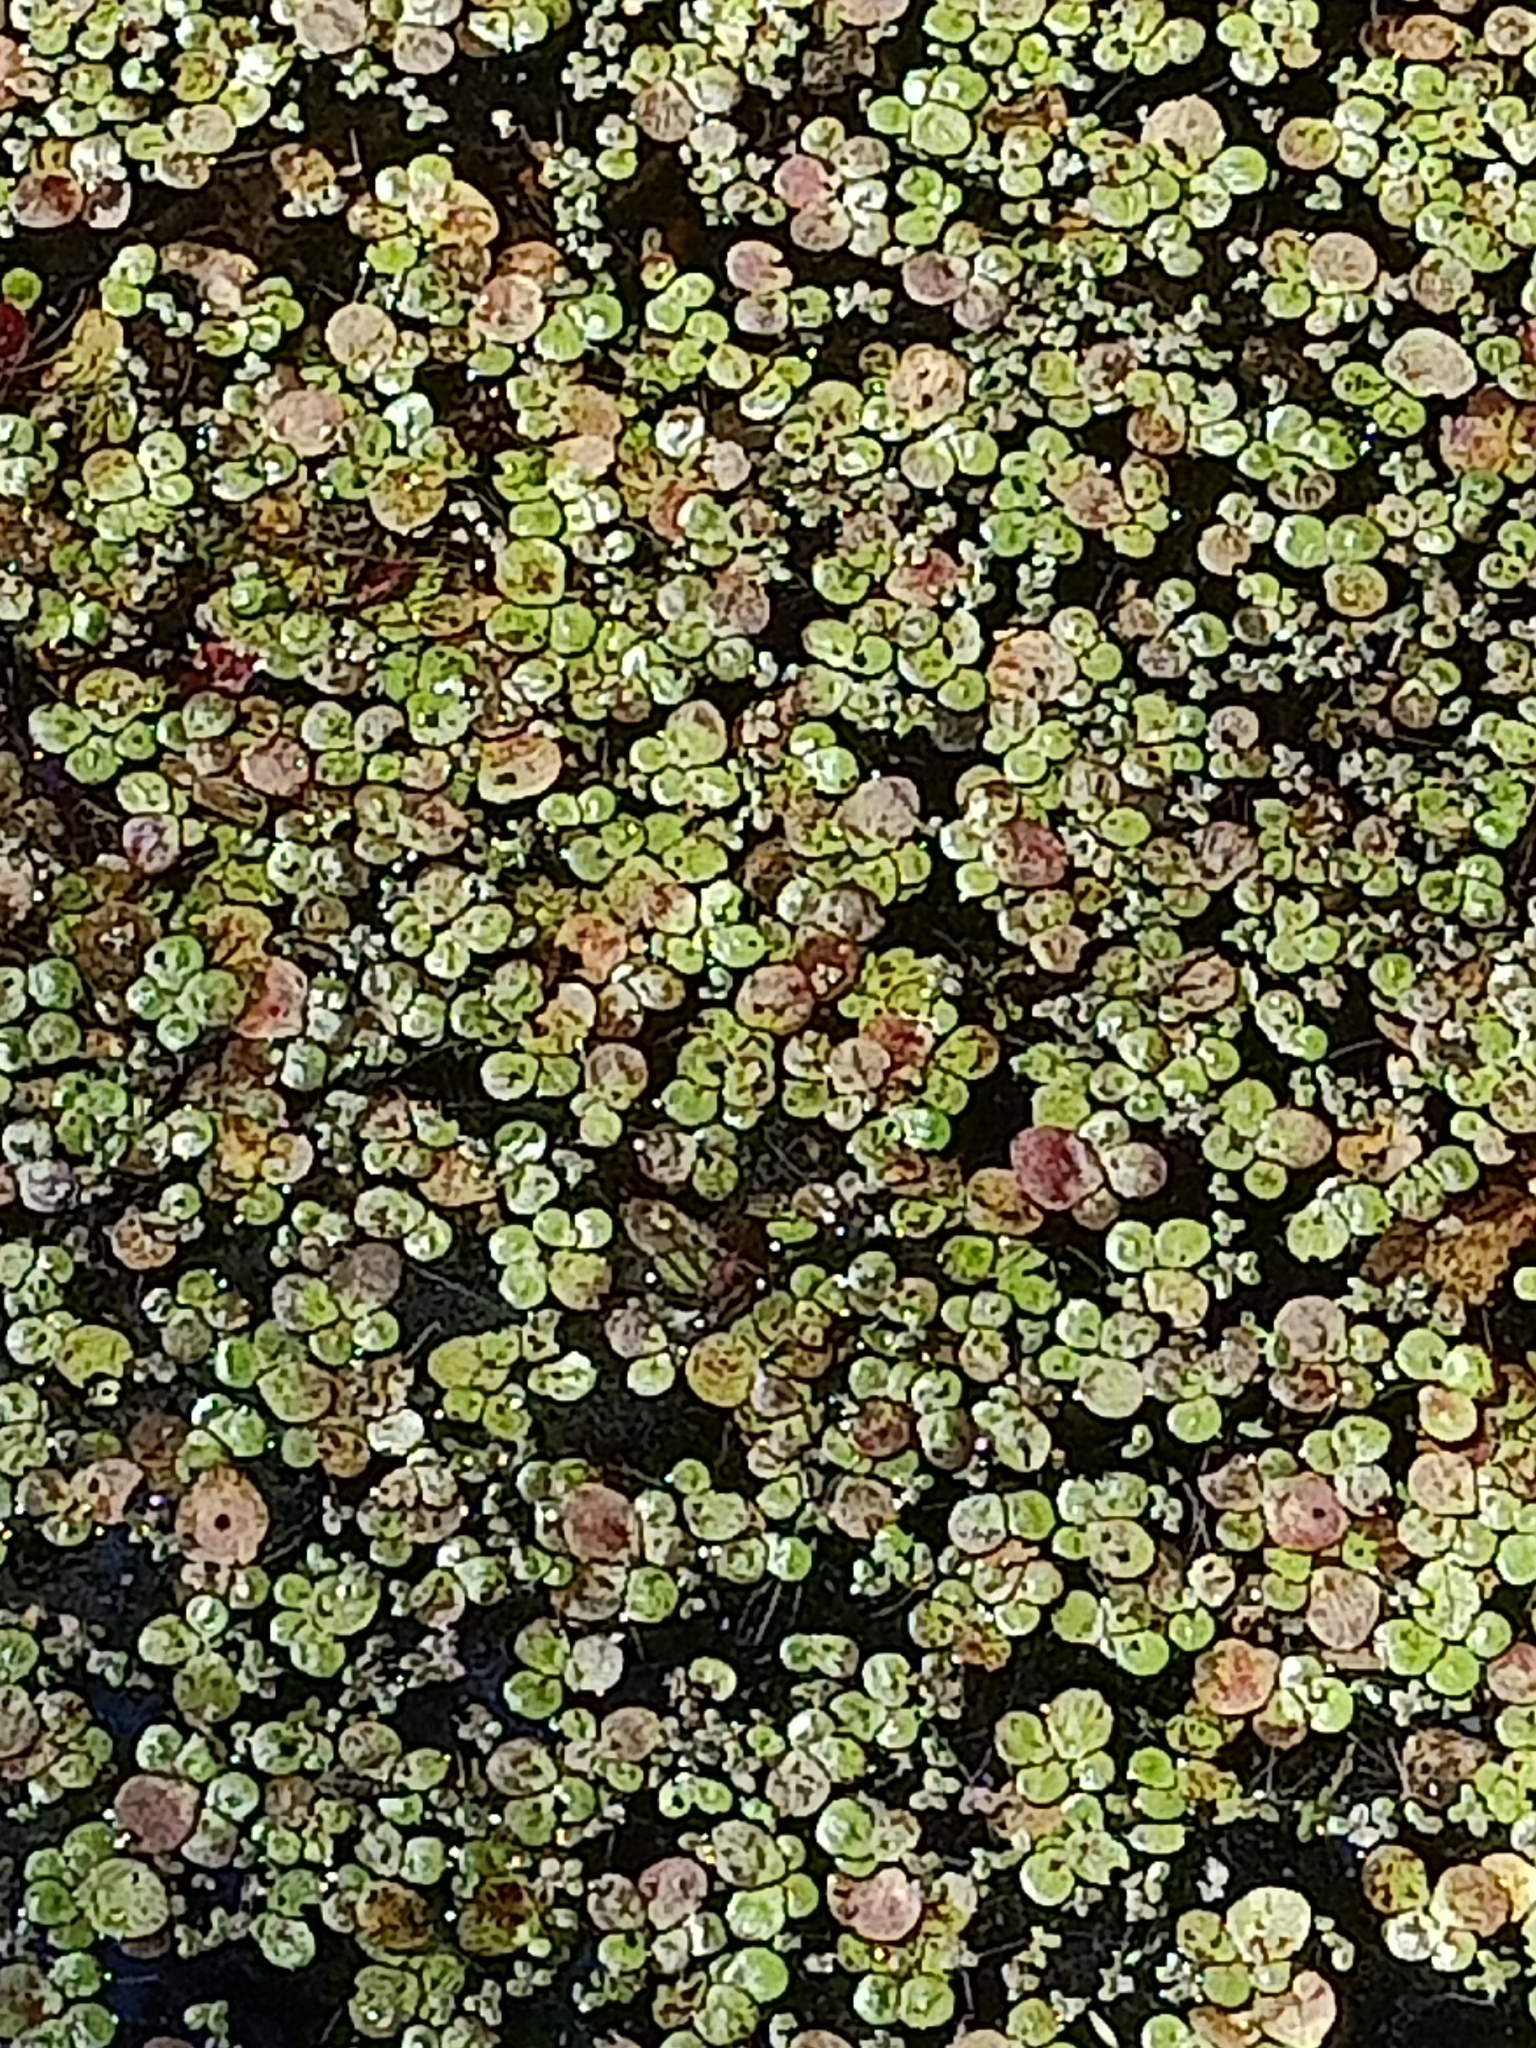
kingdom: Plantae
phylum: Tracheophyta
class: Liliopsida
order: Alismatales
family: Araceae
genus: Spirodela
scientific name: Spirodela polyrhiza
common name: Great duckweed
